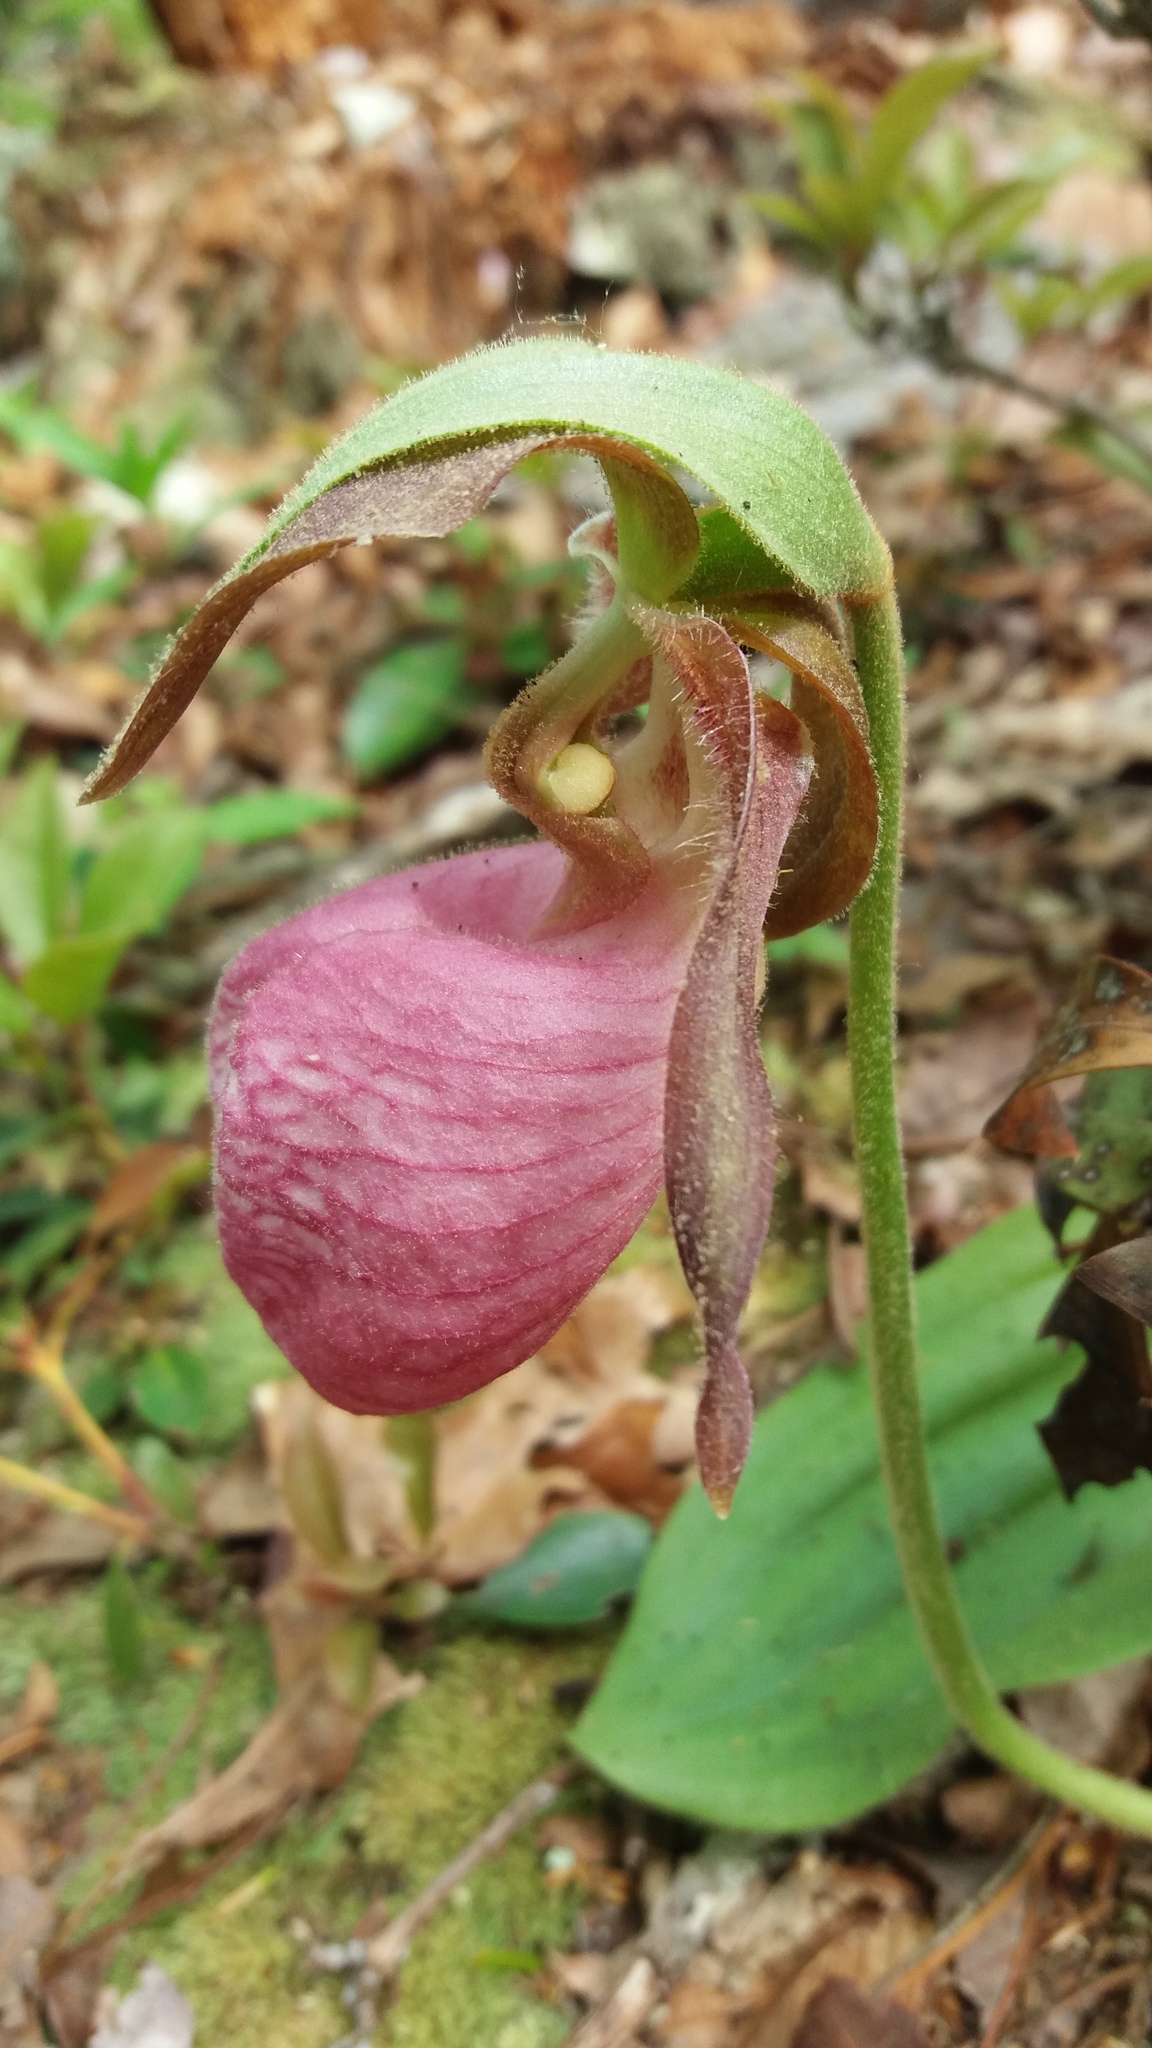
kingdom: Plantae
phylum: Tracheophyta
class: Liliopsida
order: Asparagales
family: Orchidaceae
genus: Cypripedium
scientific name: Cypripedium acaule
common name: Pink lady's-slipper
